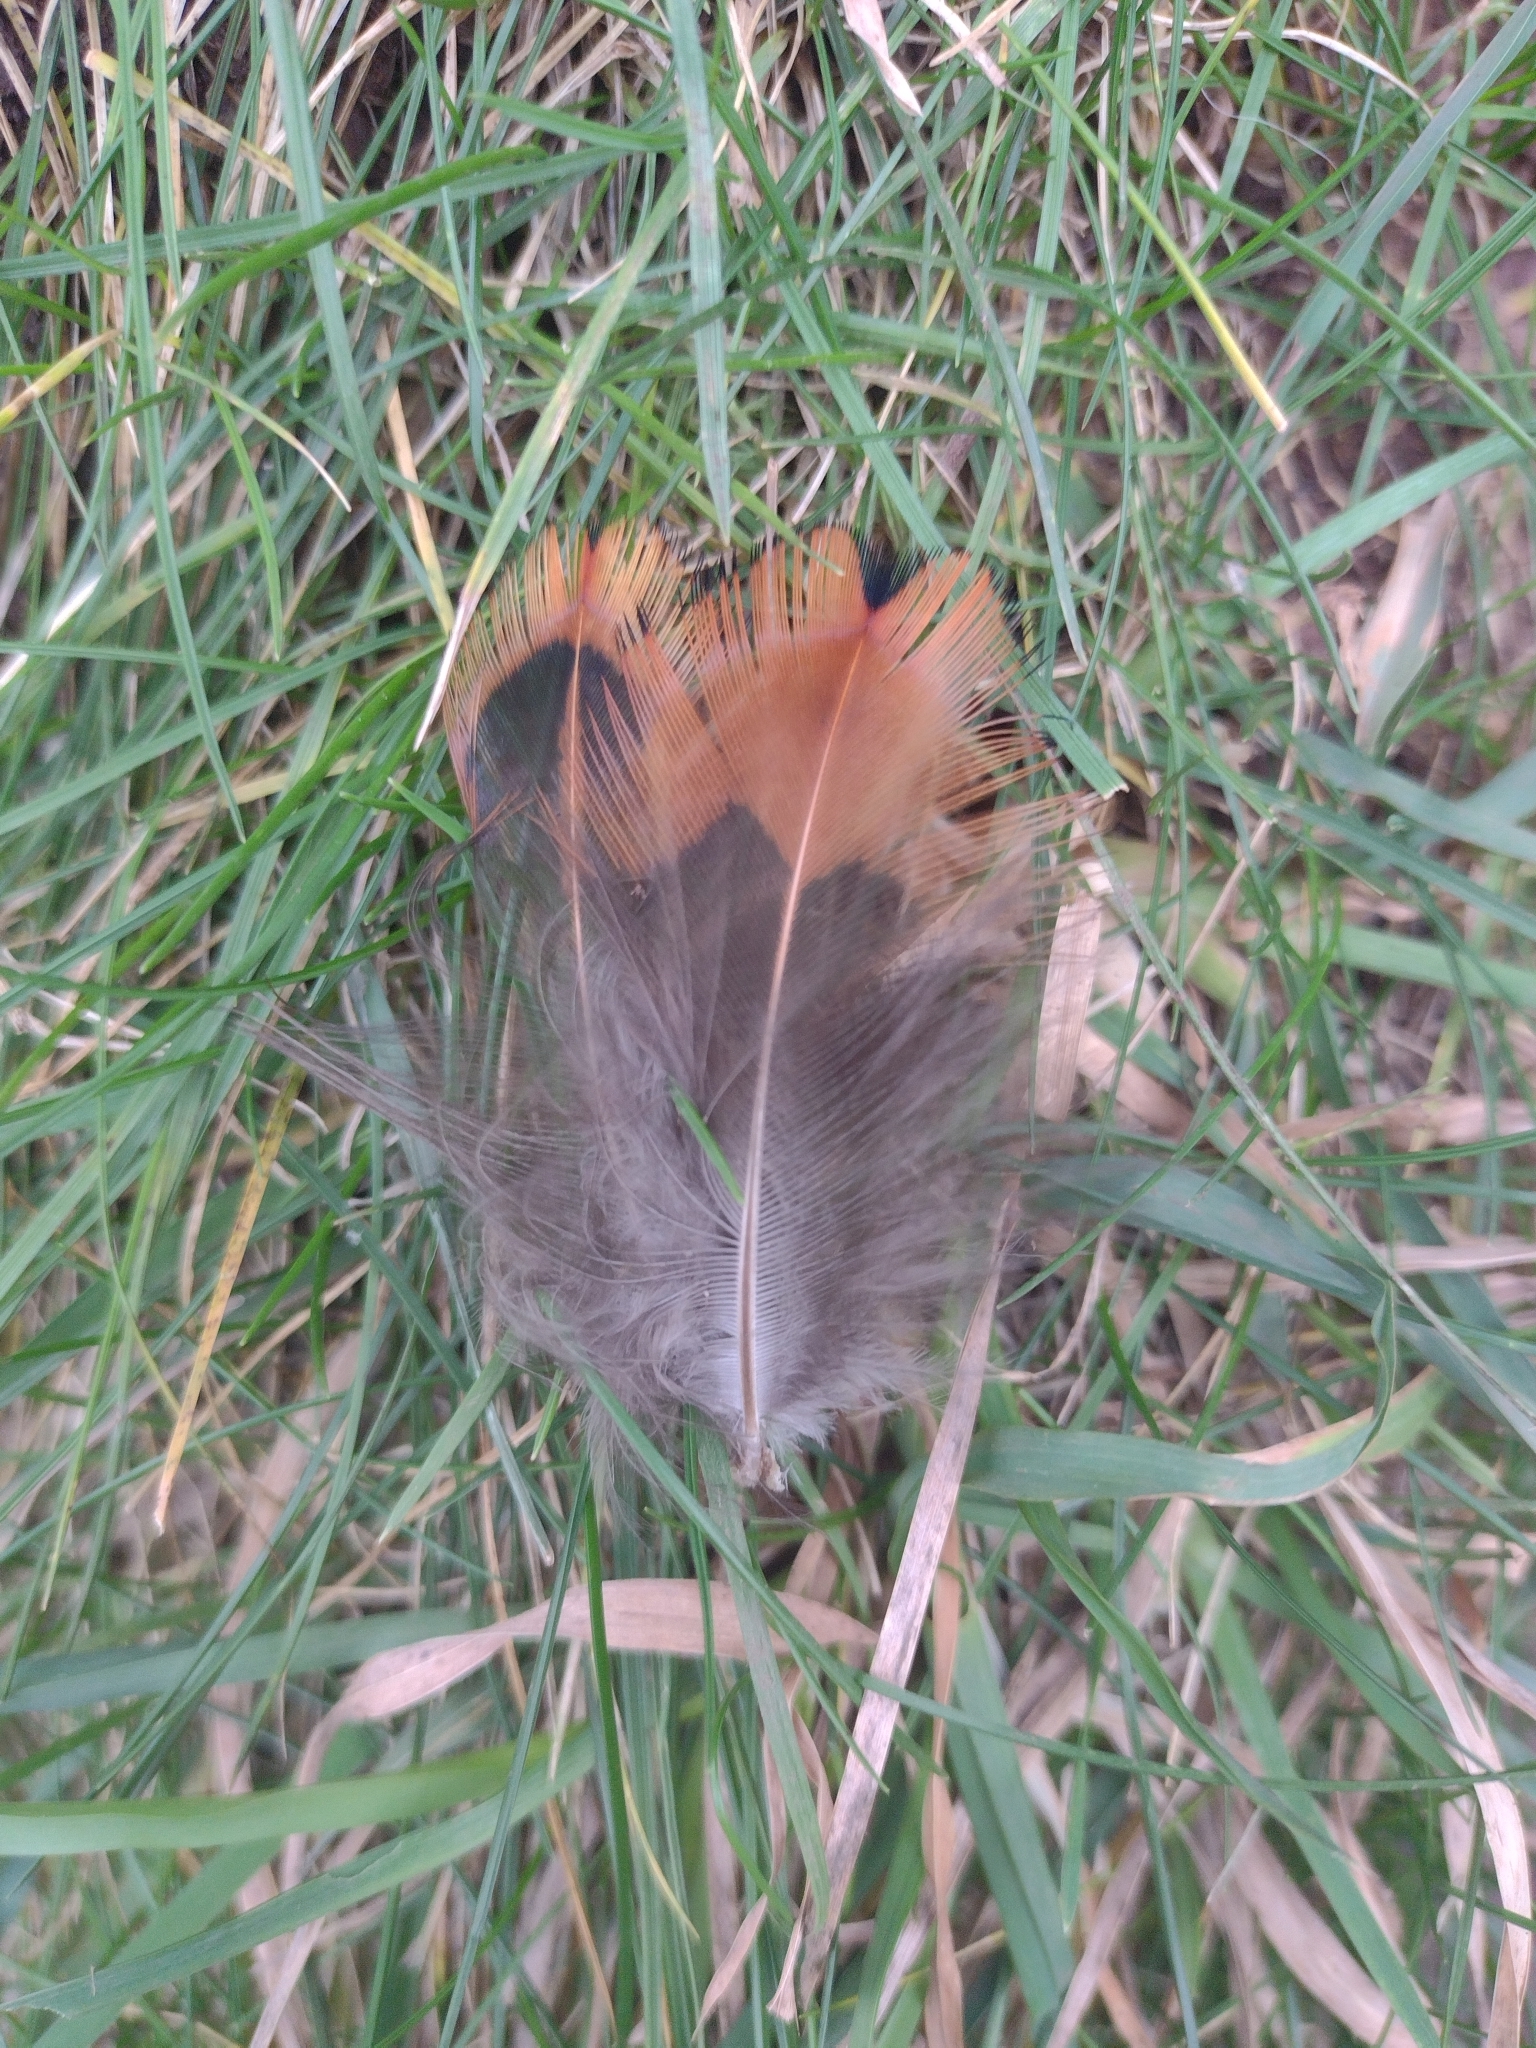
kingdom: Animalia
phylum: Chordata
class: Aves
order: Galliformes
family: Phasianidae
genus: Phasianus
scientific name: Phasianus colchicus
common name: Common pheasant
